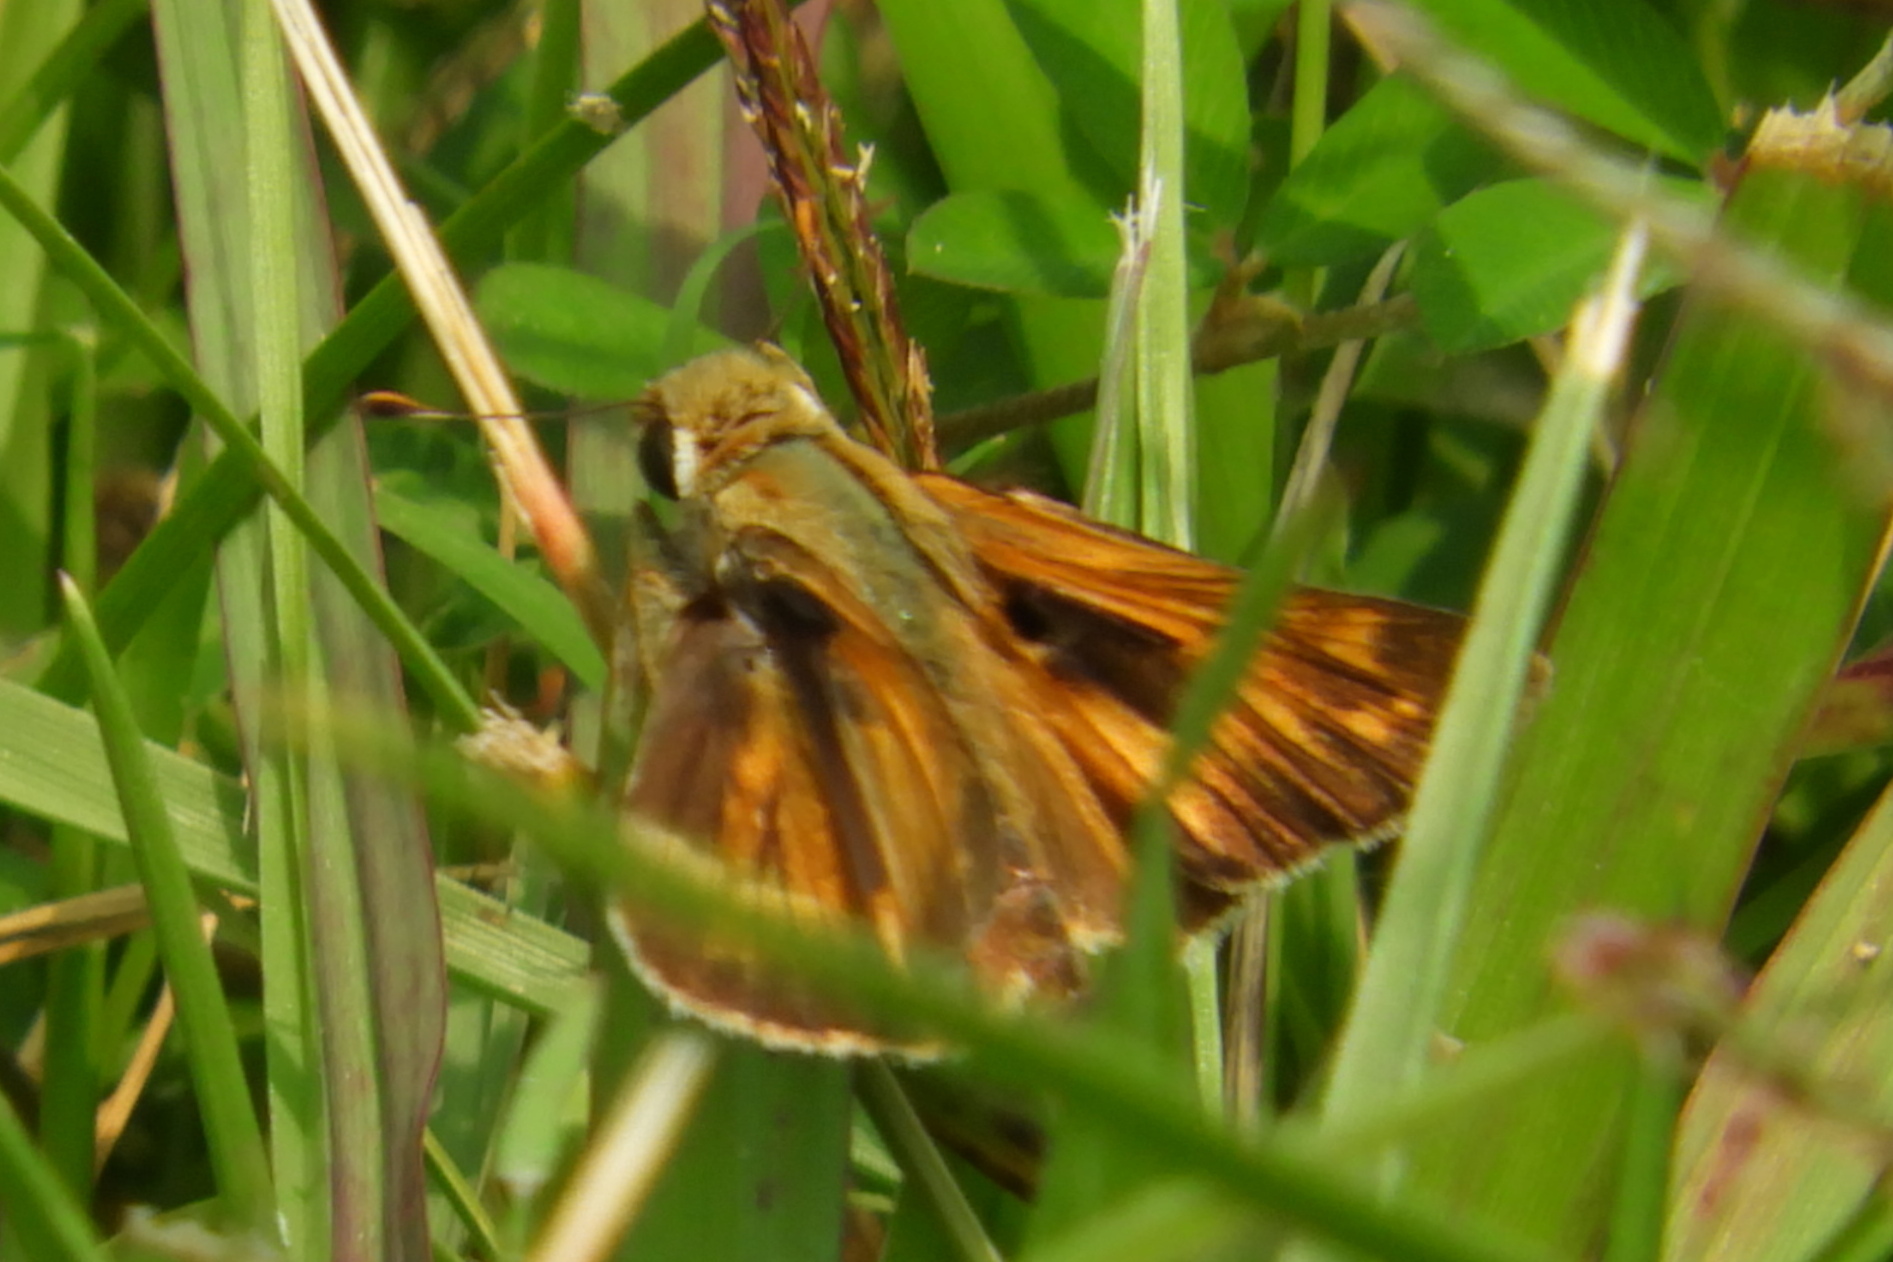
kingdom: Animalia
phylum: Arthropoda
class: Insecta
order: Lepidoptera
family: Hesperiidae
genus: Atalopedes
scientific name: Atalopedes
